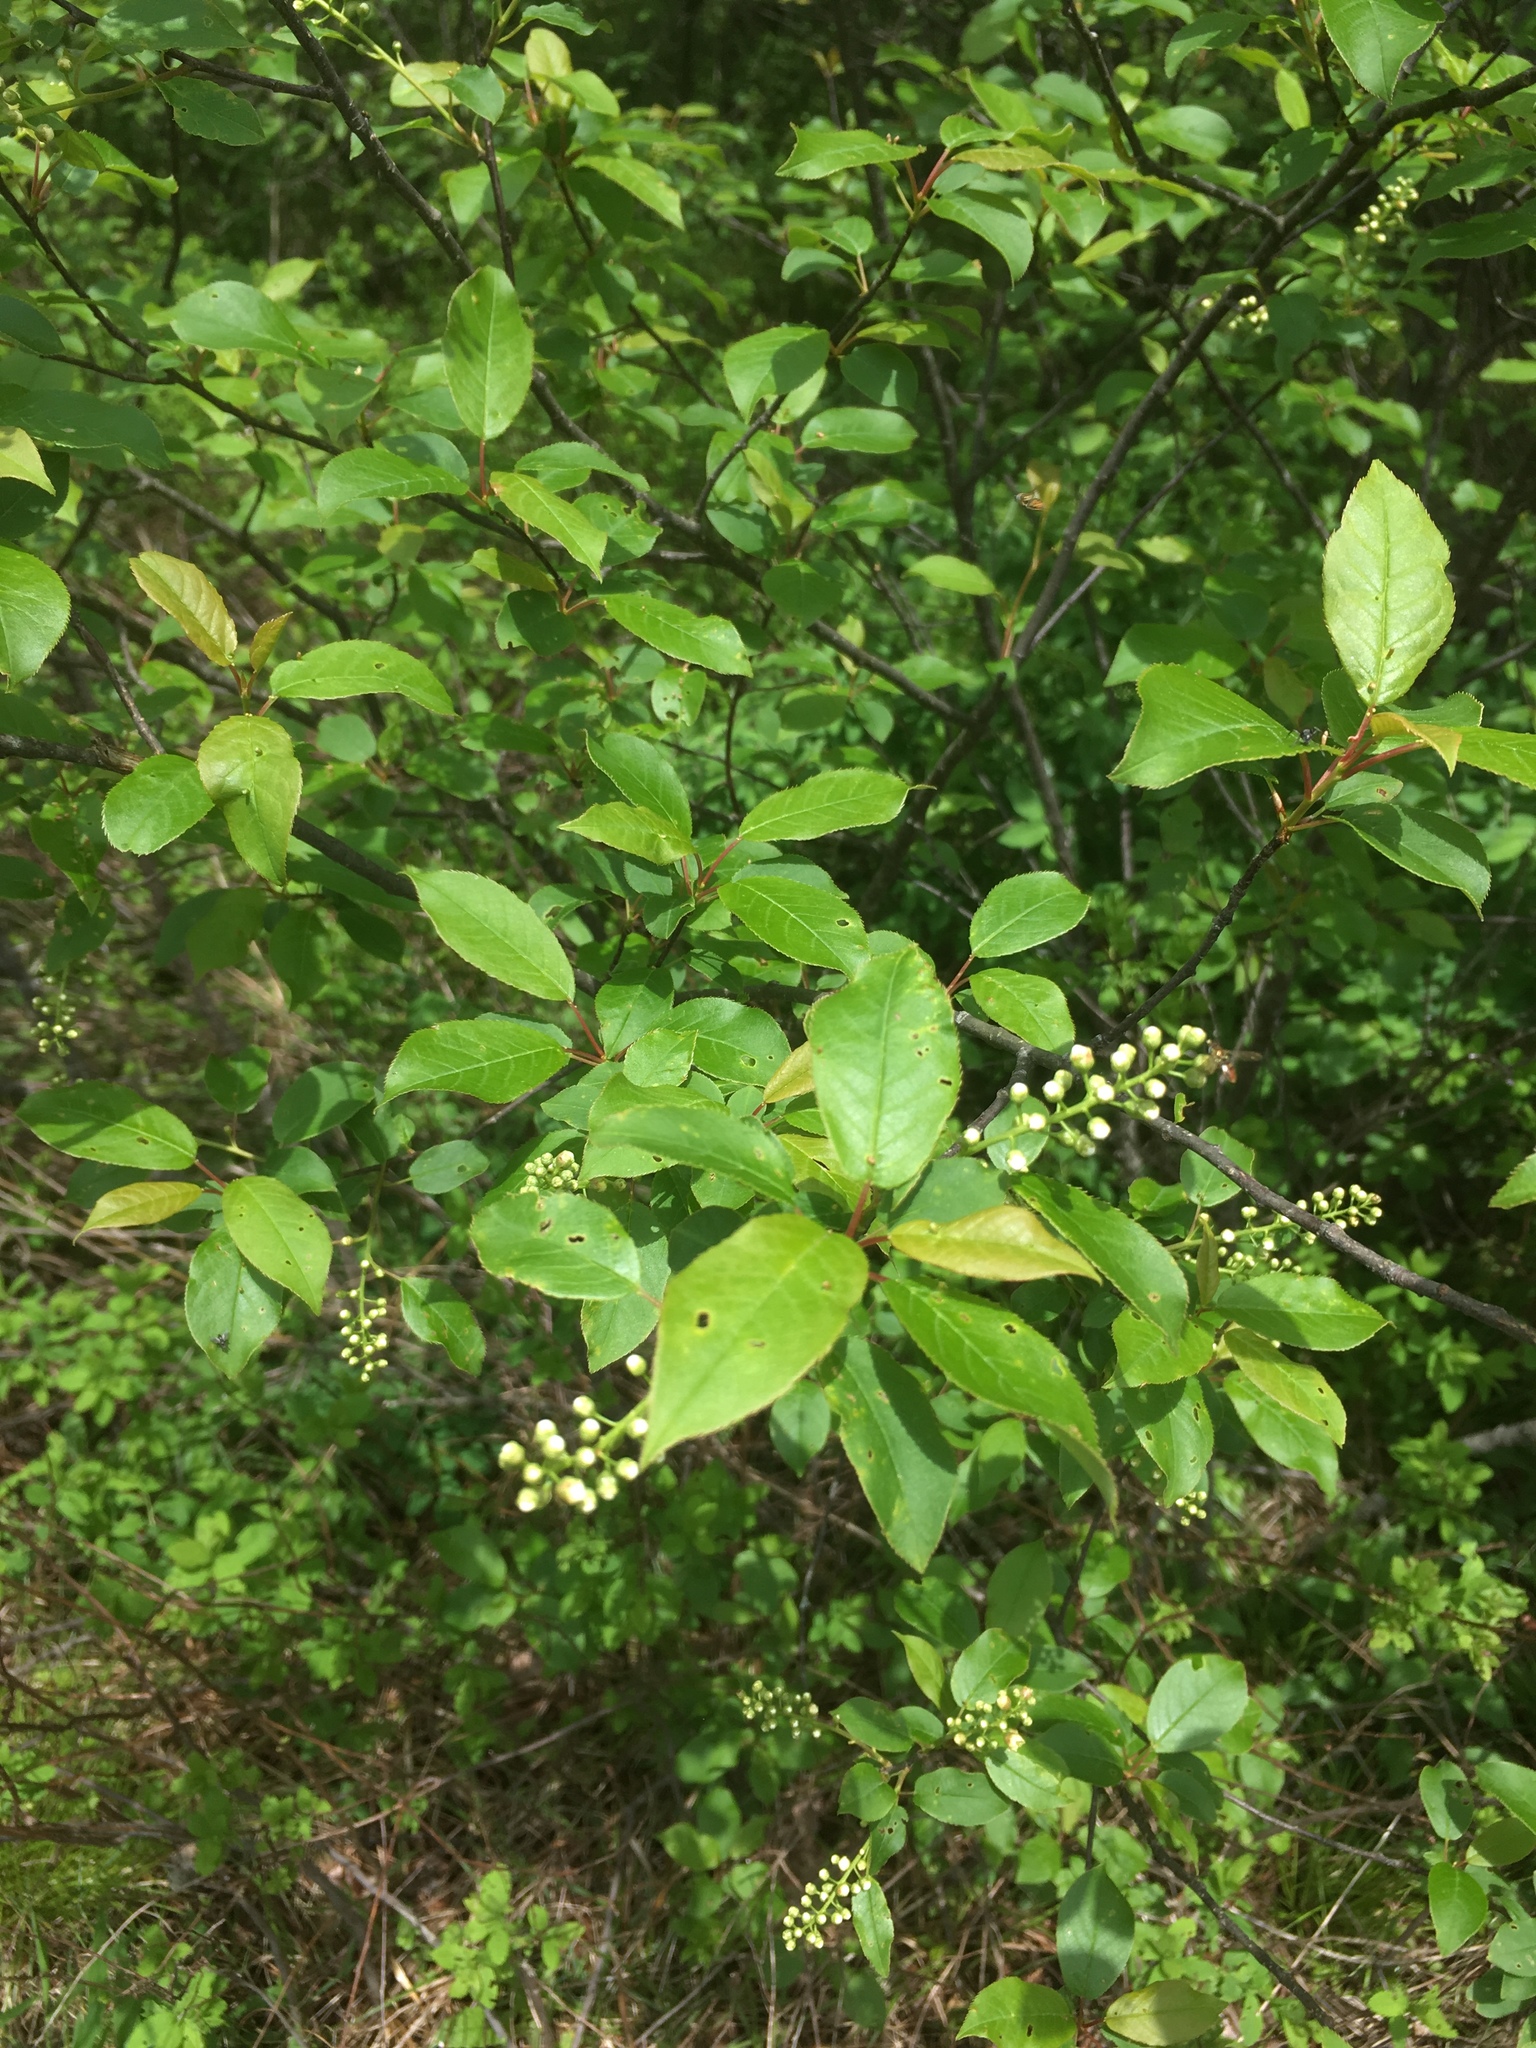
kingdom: Plantae
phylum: Tracheophyta
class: Magnoliopsida
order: Rosales
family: Rosaceae
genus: Prunus
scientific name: Prunus virginiana
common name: Chokecherry
